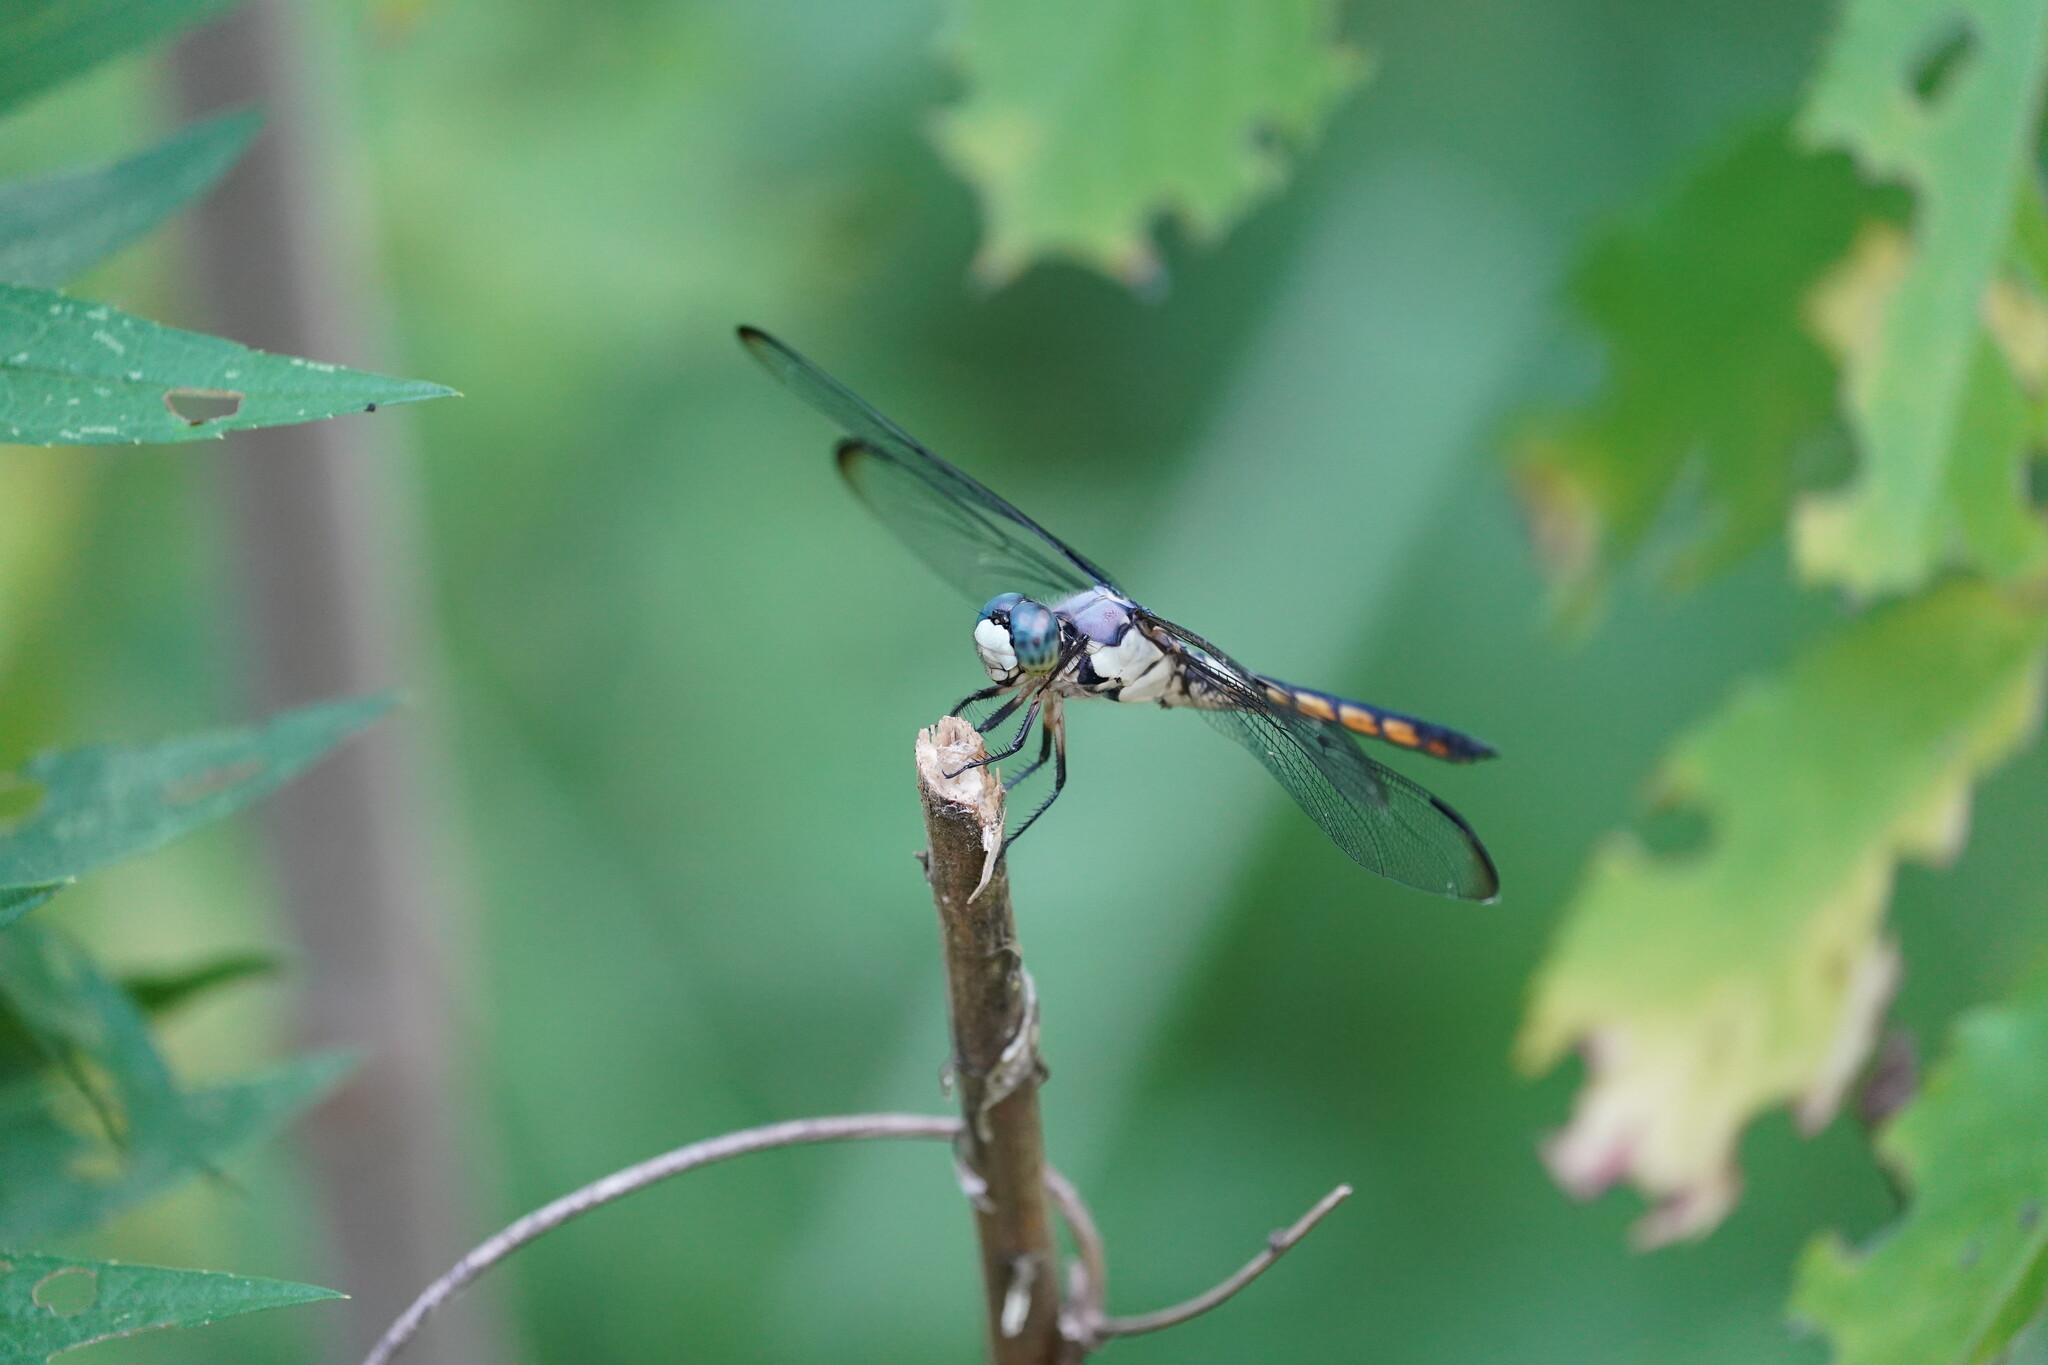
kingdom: Animalia
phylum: Arthropoda
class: Insecta
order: Odonata
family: Libellulidae
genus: Libellula
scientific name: Libellula vibrans
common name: Great blue skimmer
